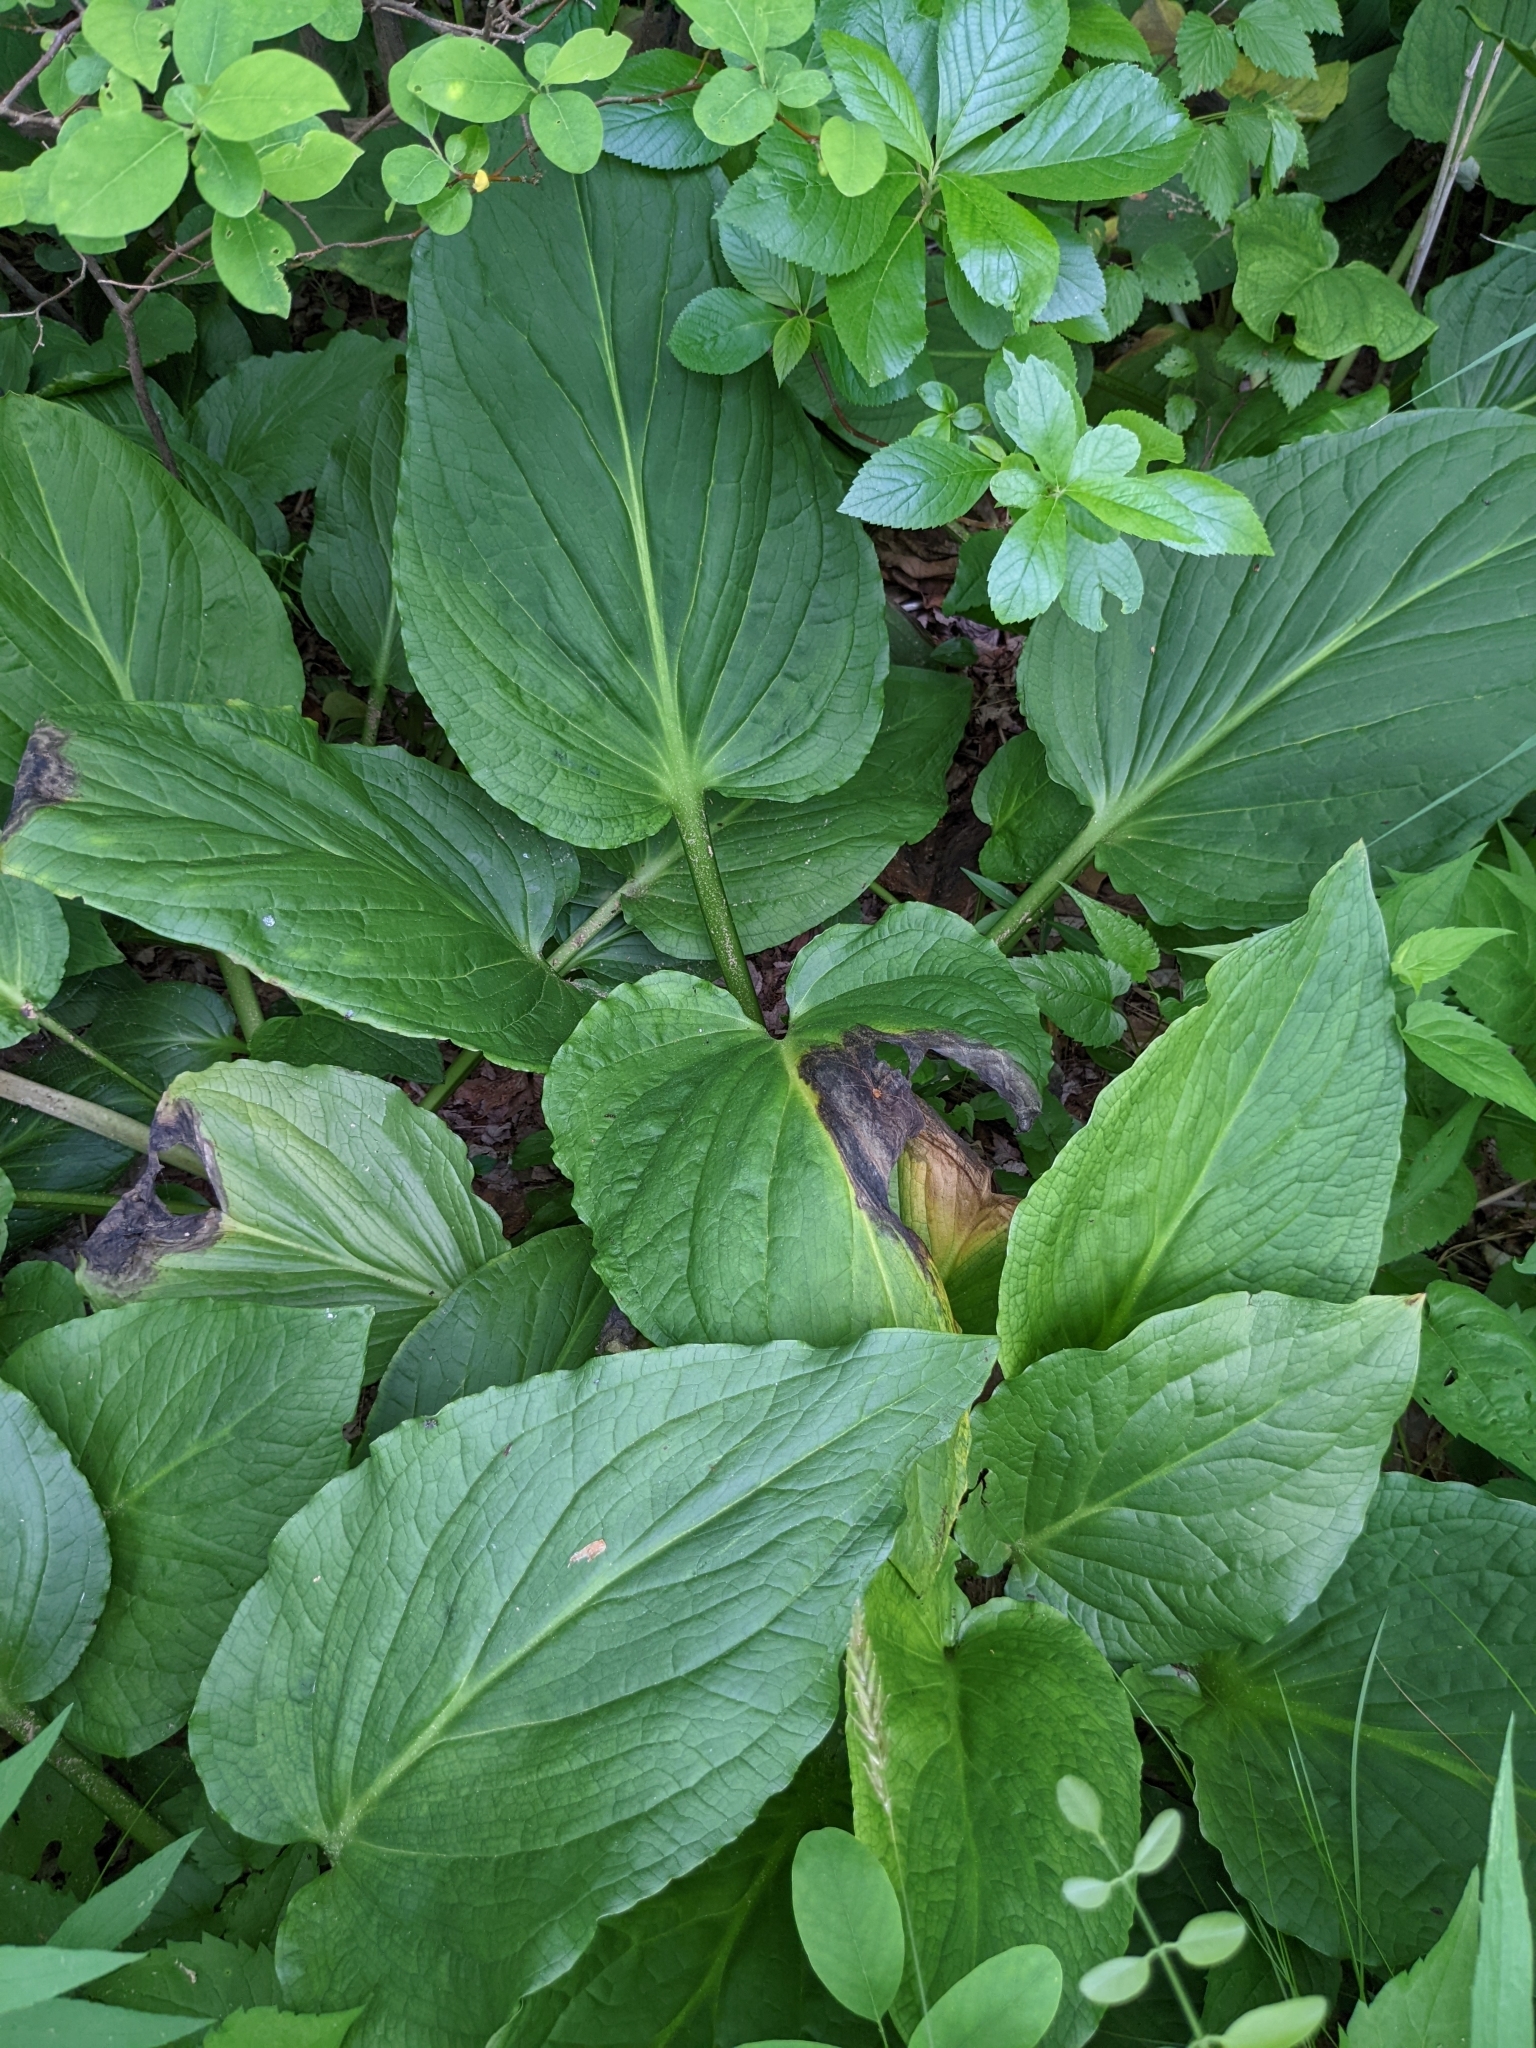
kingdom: Plantae
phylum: Tracheophyta
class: Liliopsida
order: Alismatales
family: Araceae
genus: Symplocarpus
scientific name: Symplocarpus foetidus
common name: Eastern skunk cabbage
